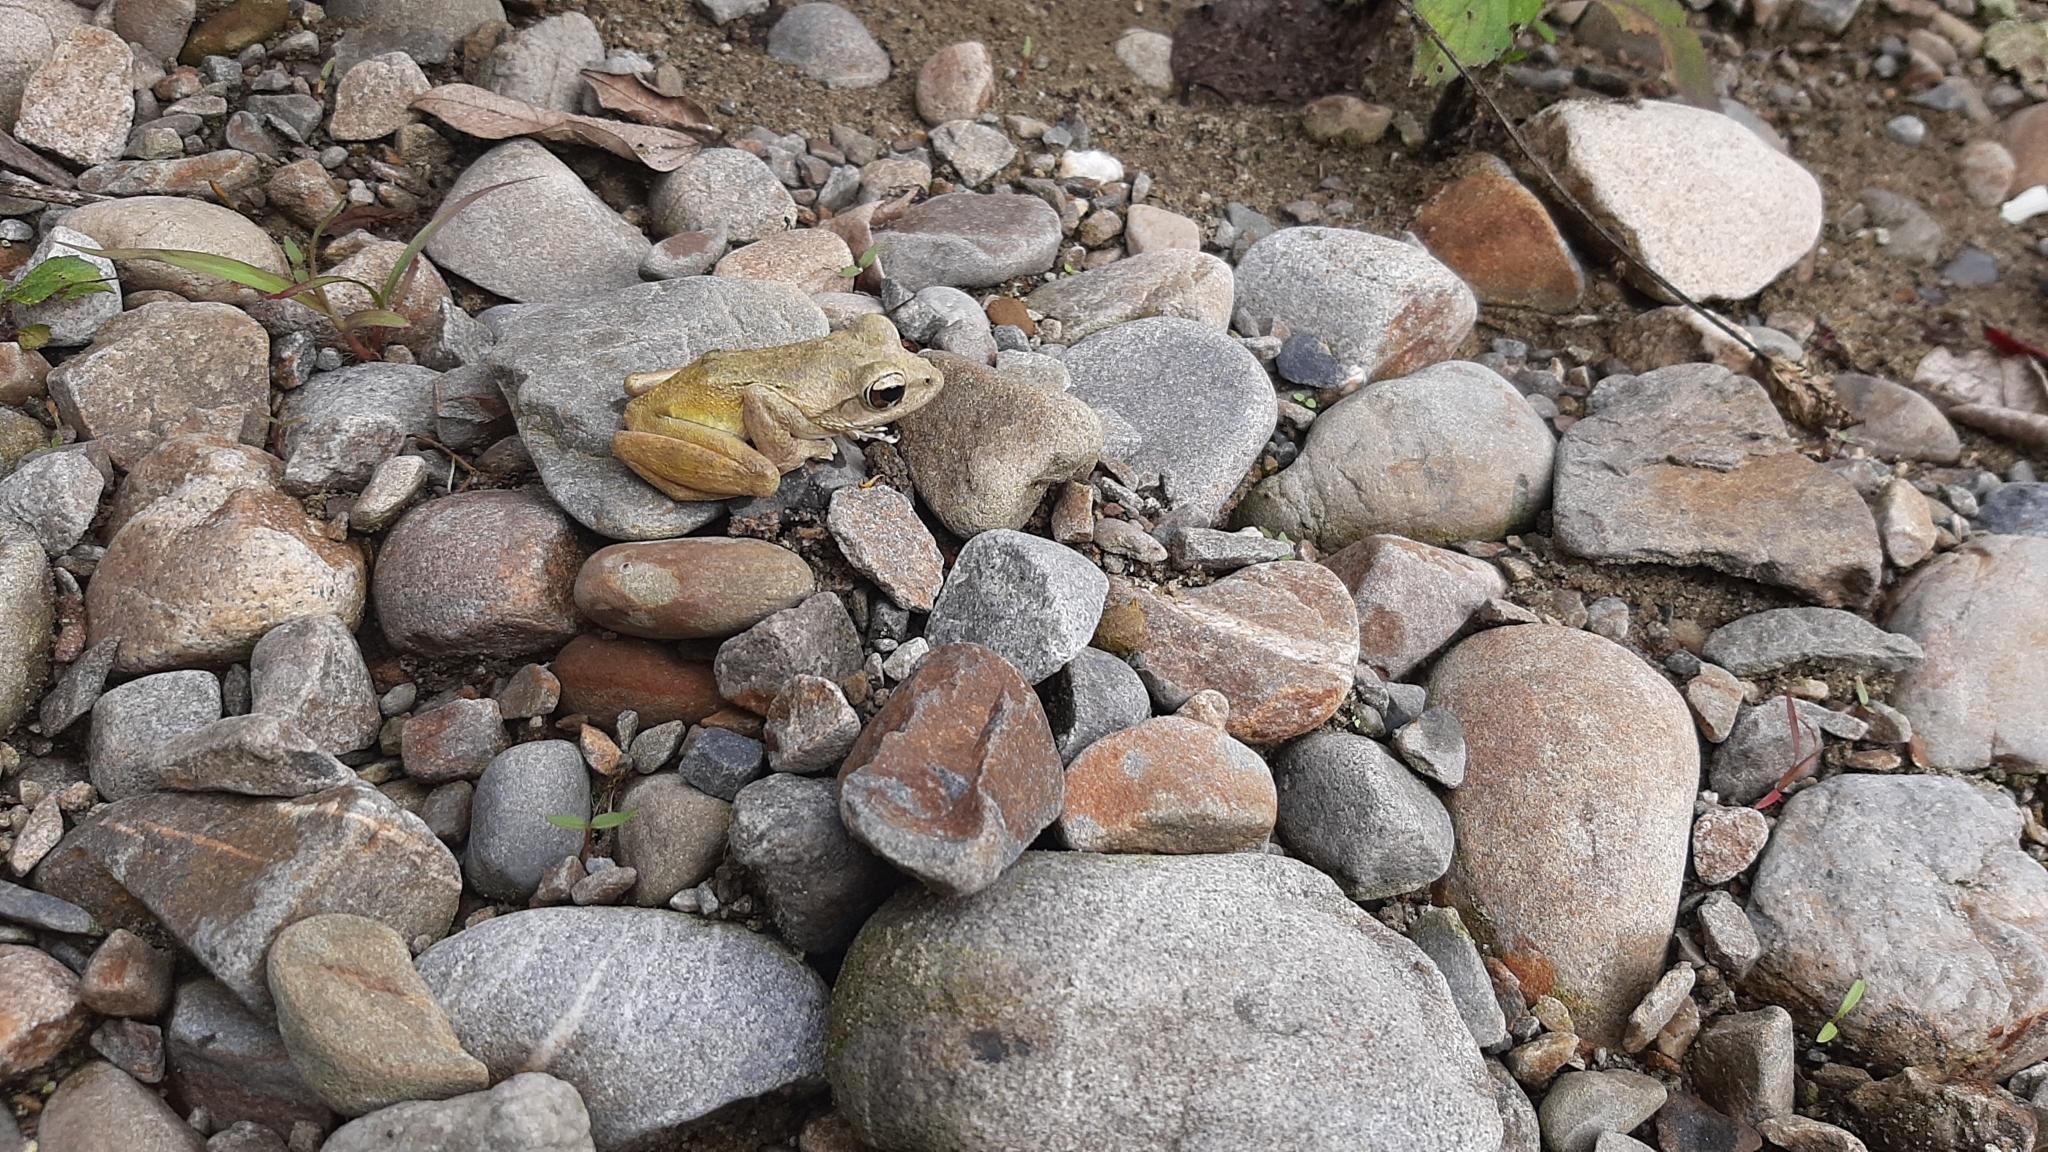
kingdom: Animalia
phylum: Chordata
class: Amphibia
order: Anura
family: Rhacophoridae
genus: Buergeria
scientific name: Buergeria robusta
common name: Brown treefrog
